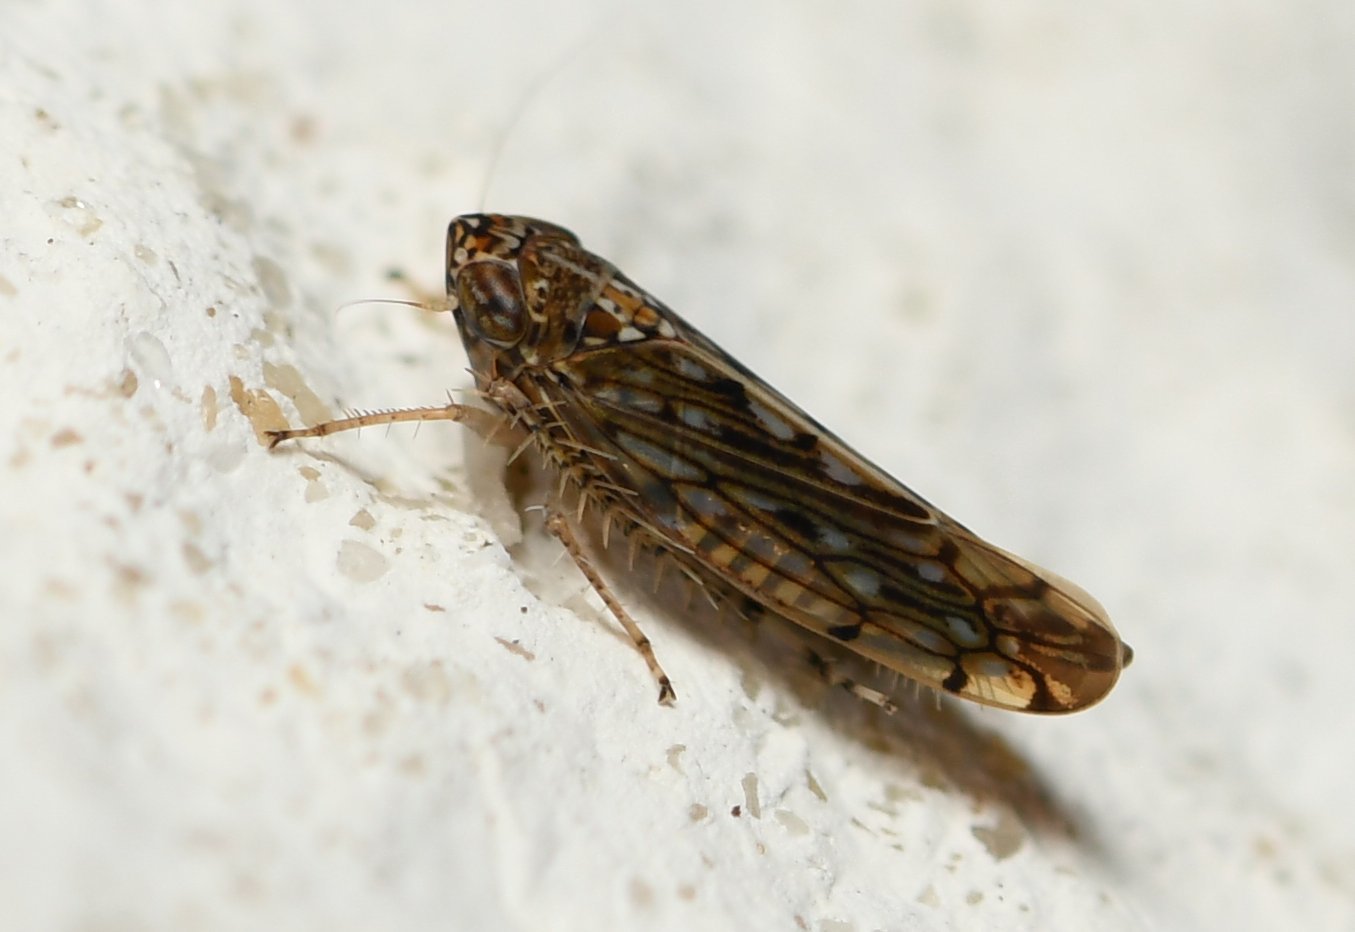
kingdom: Animalia
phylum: Arthropoda
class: Insecta
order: Hemiptera
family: Cicadellidae
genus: Osbornellus
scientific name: Osbornellus clarus
